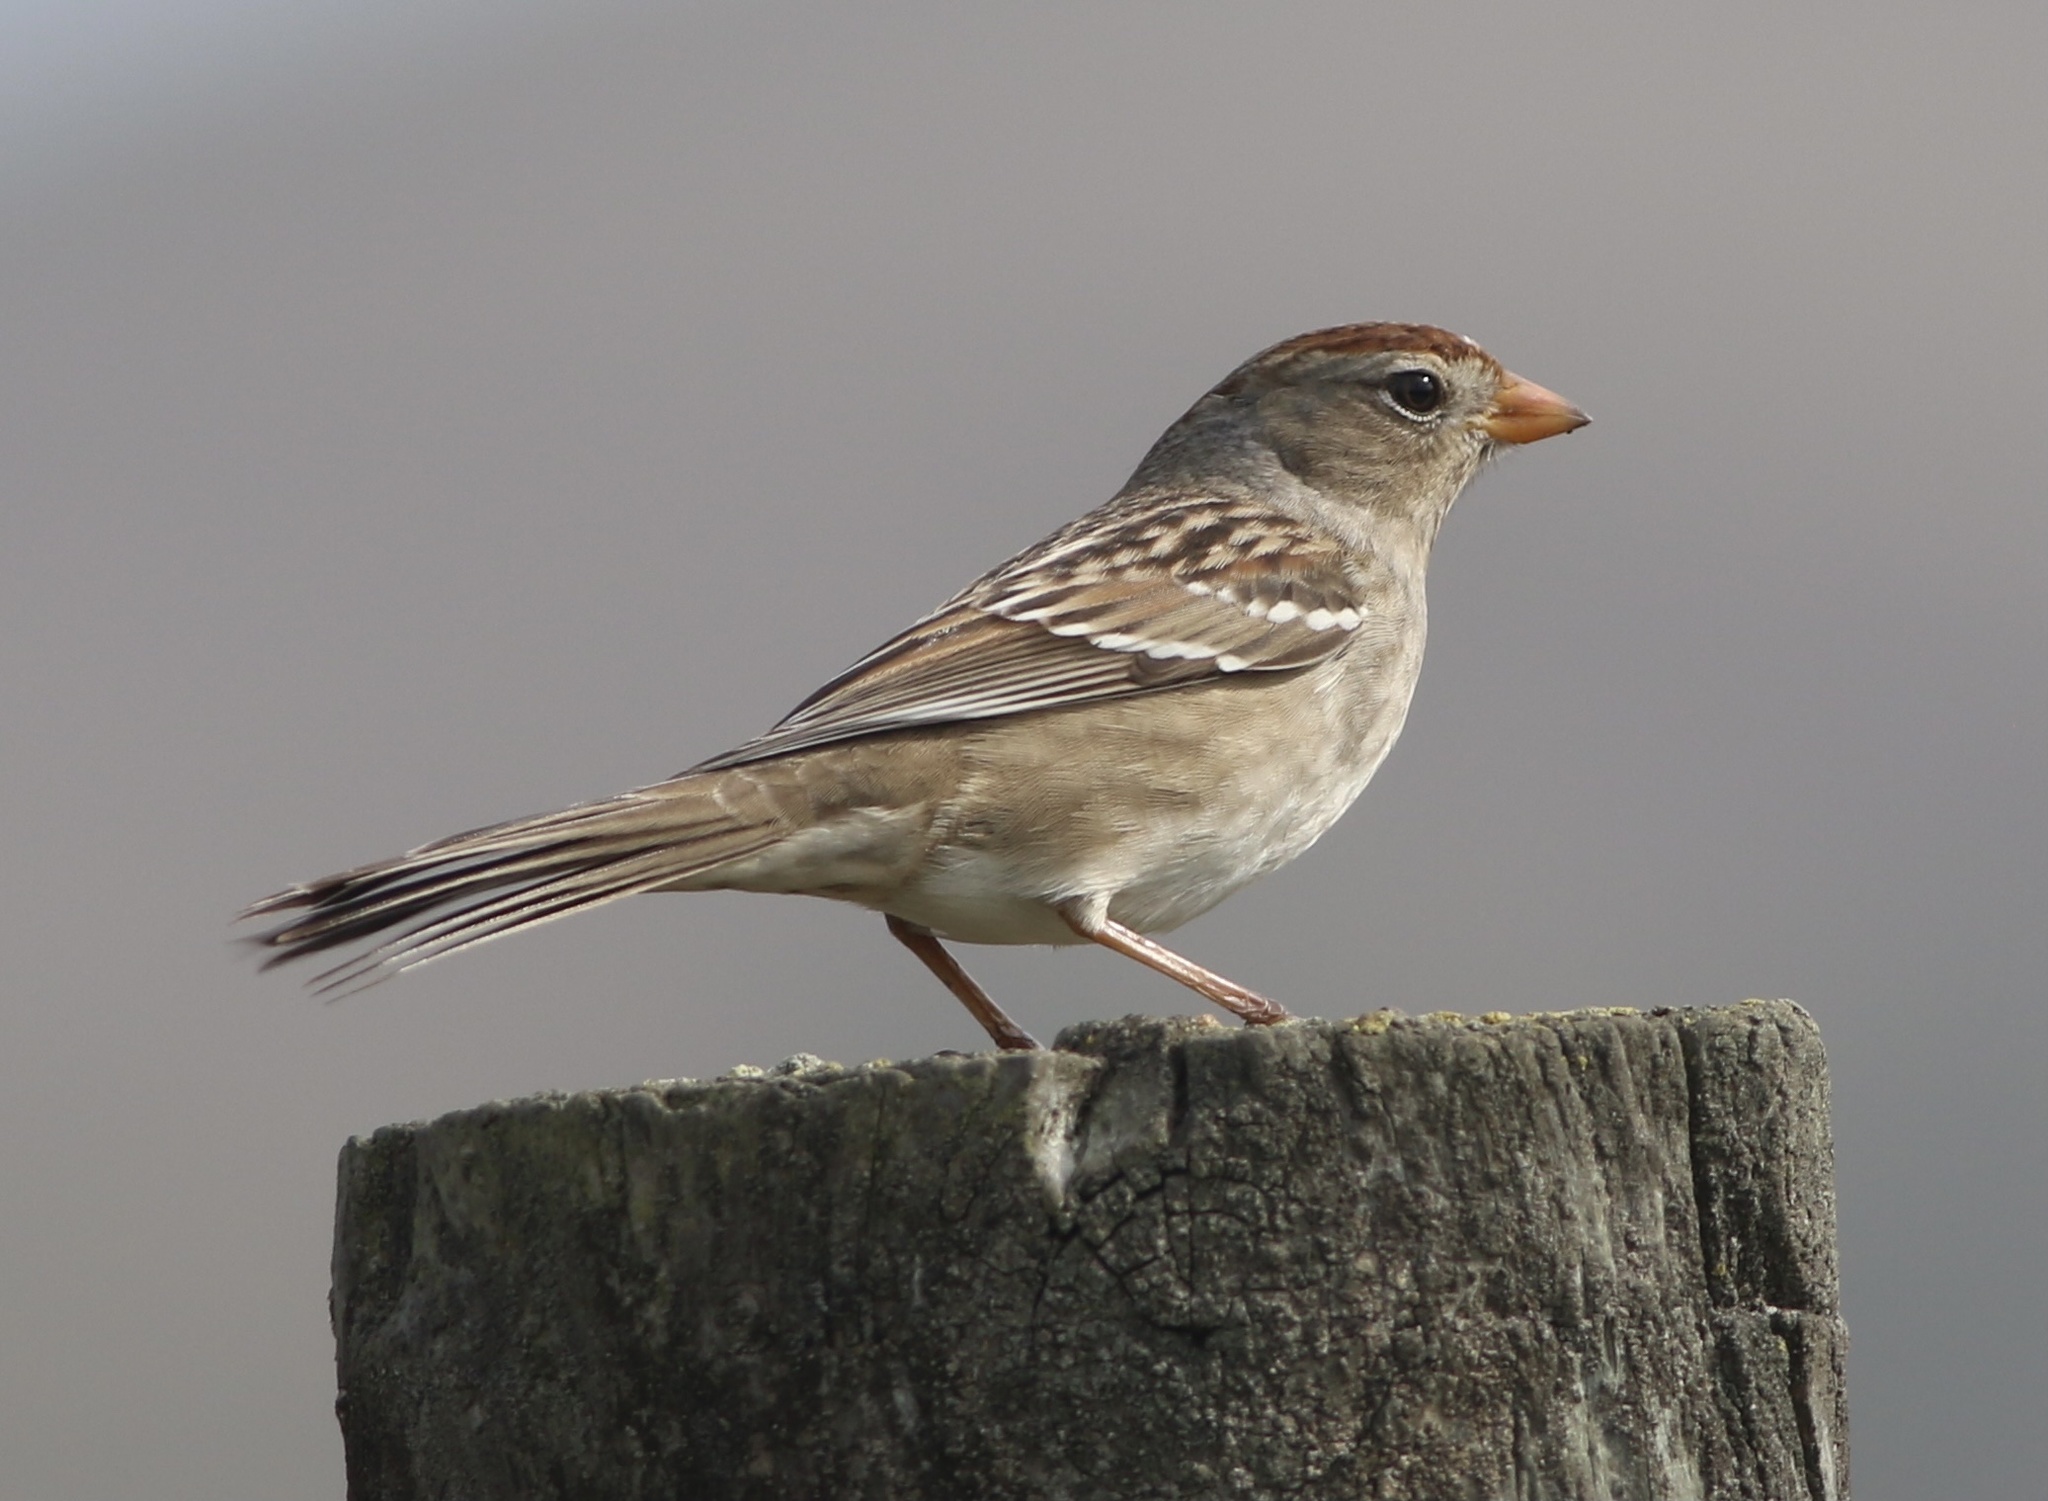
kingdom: Animalia
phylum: Chordata
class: Aves
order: Passeriformes
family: Passerellidae
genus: Zonotrichia
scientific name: Zonotrichia leucophrys
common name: White-crowned sparrow
